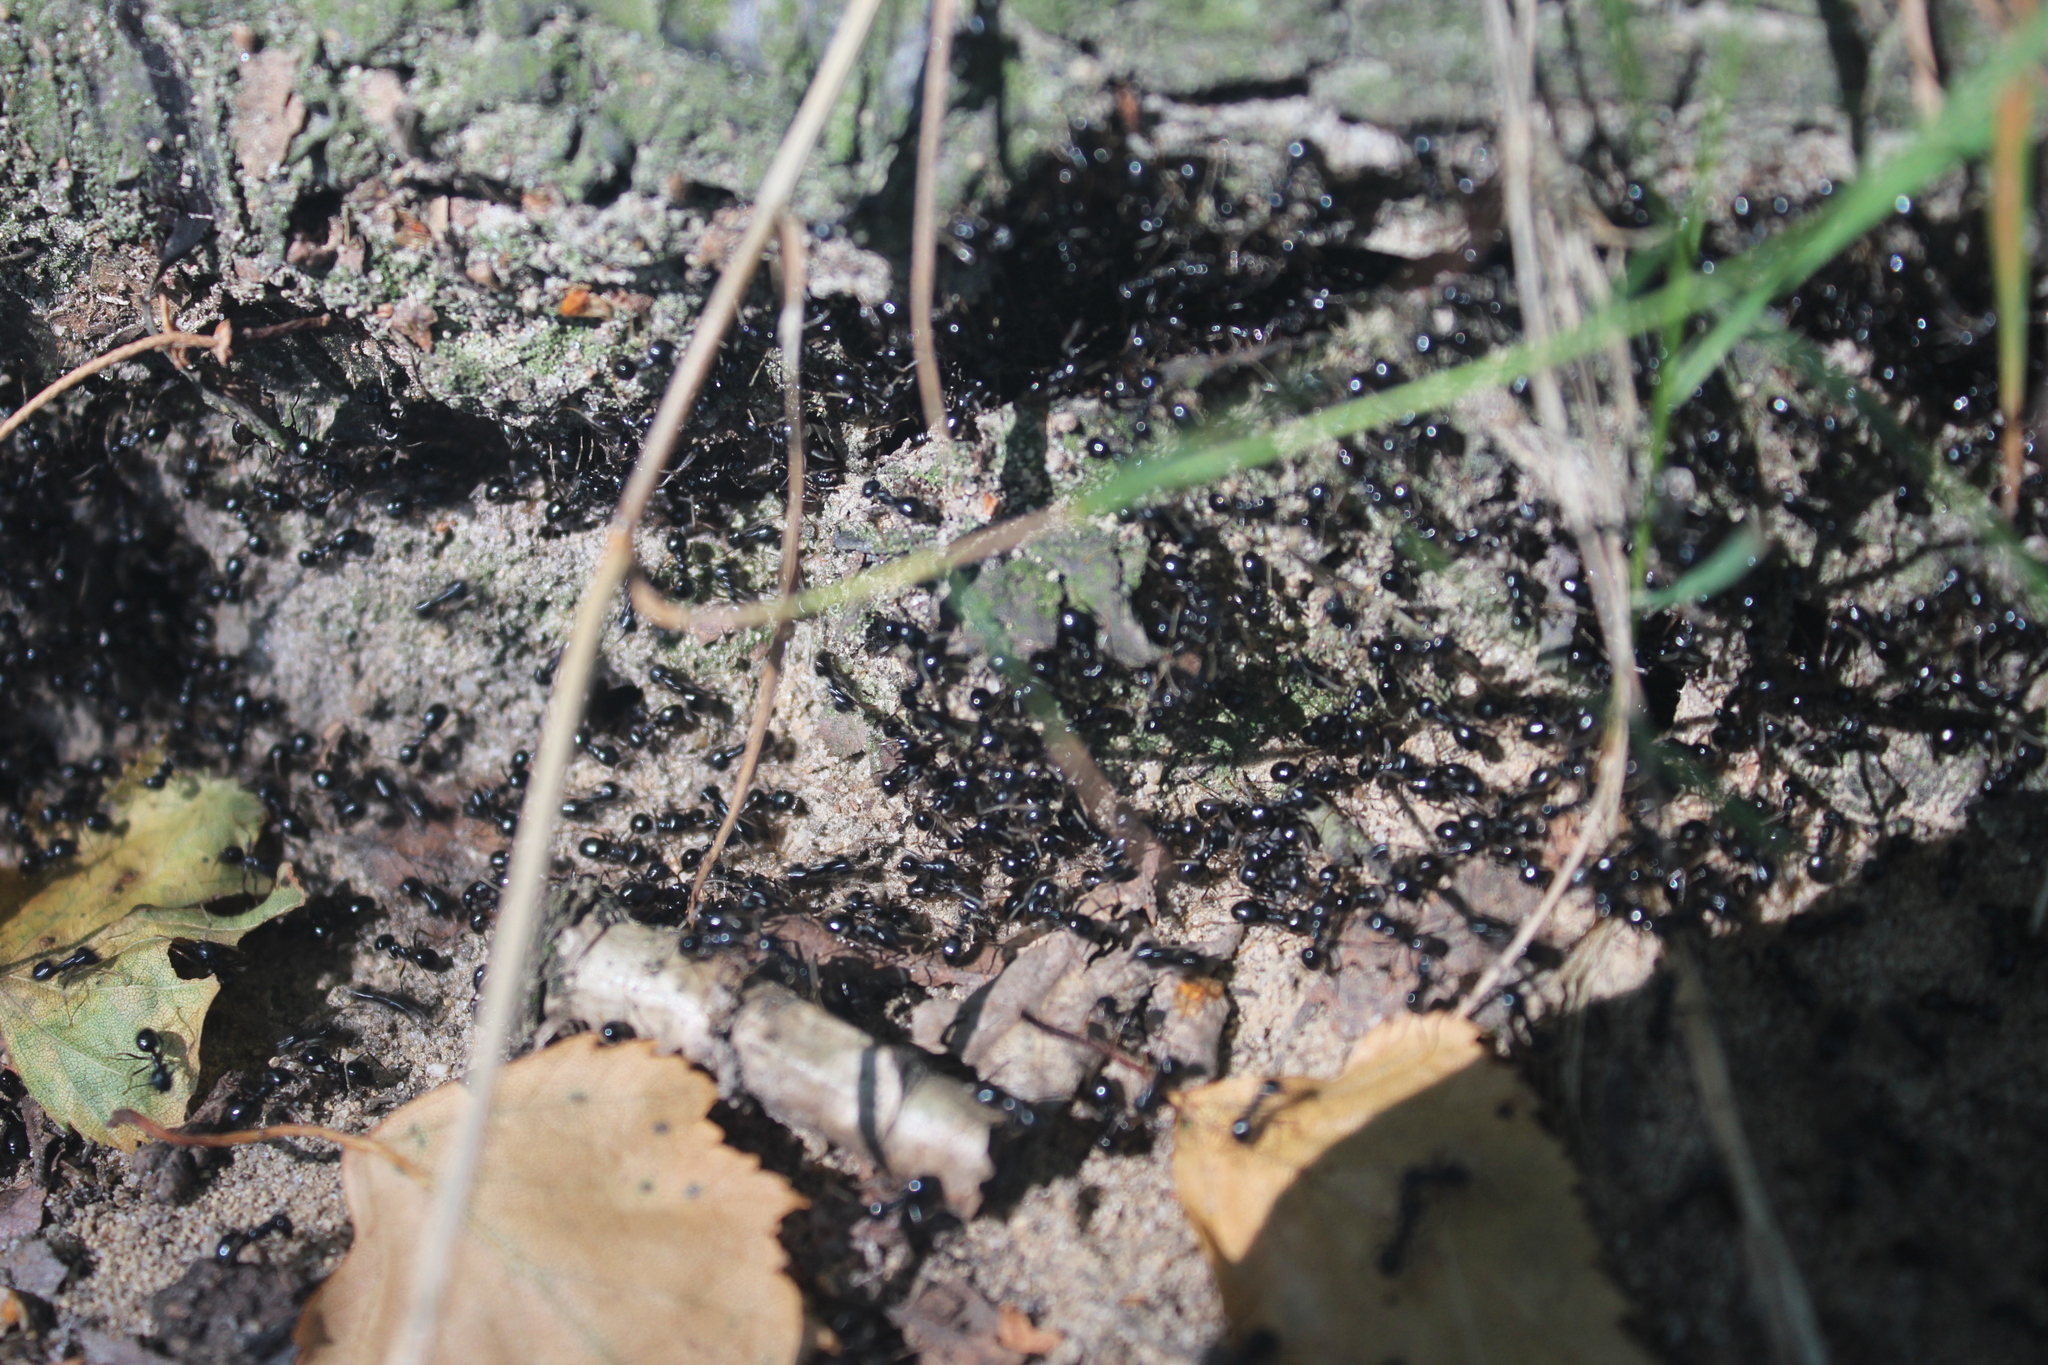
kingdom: Animalia
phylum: Arthropoda
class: Insecta
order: Hymenoptera
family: Formicidae
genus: Lasius
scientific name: Lasius fuliginosus
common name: Jet ant
